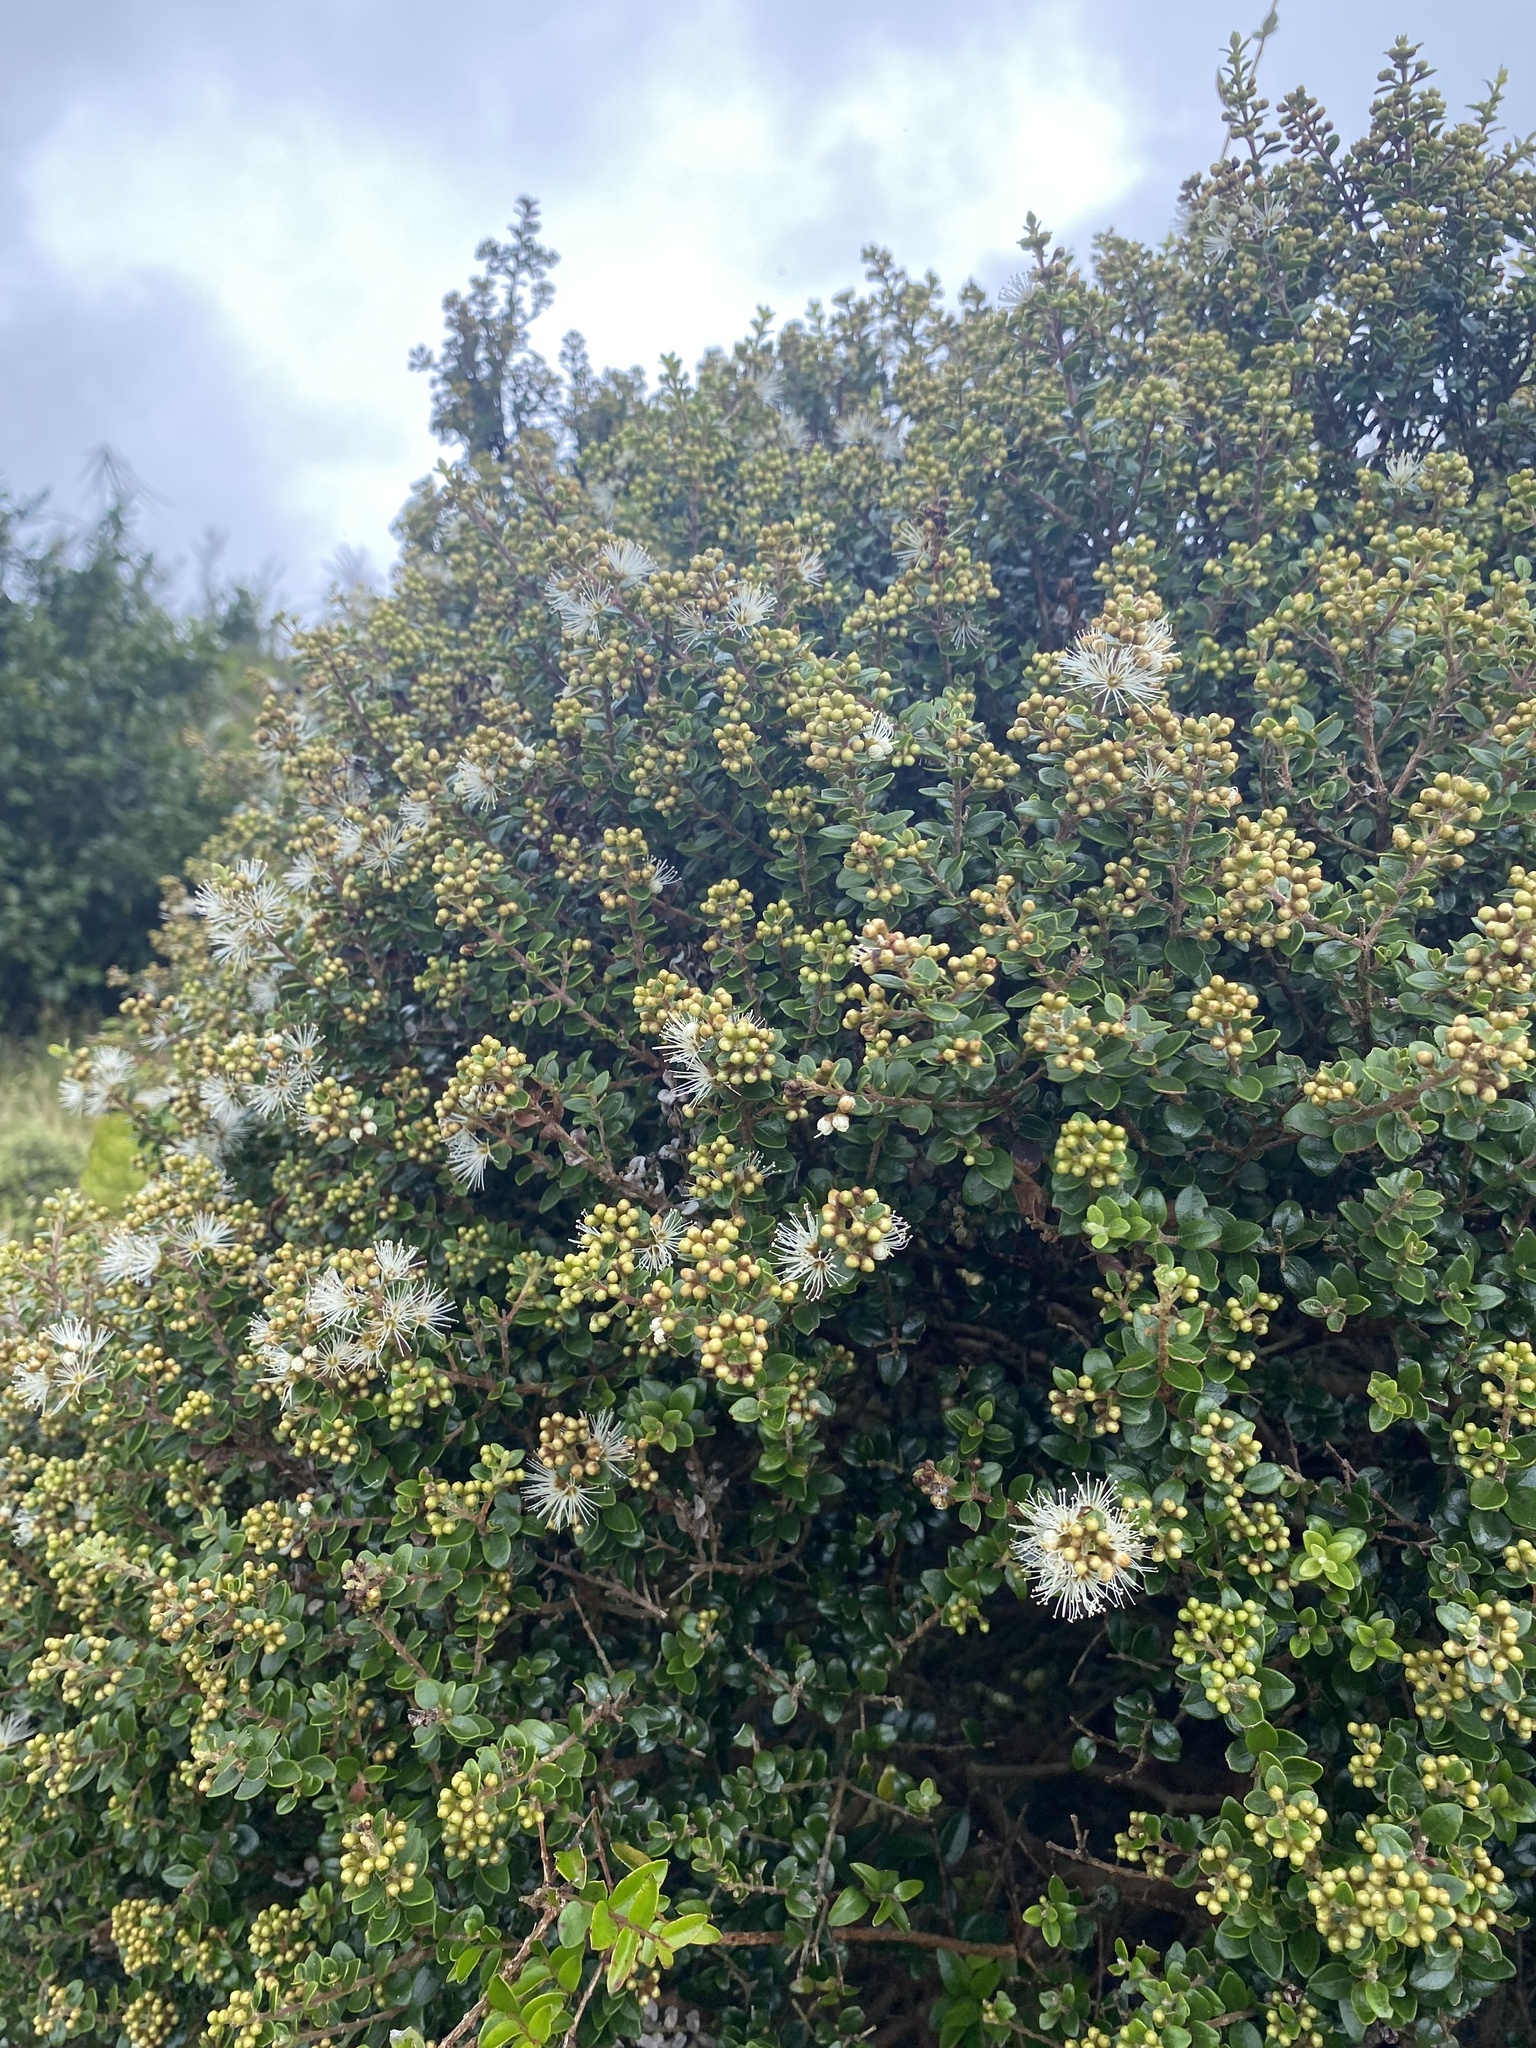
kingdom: Plantae
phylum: Tracheophyta
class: Magnoliopsida
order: Myrtales
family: Myrtaceae
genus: Metrosideros
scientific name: Metrosideros perforata
